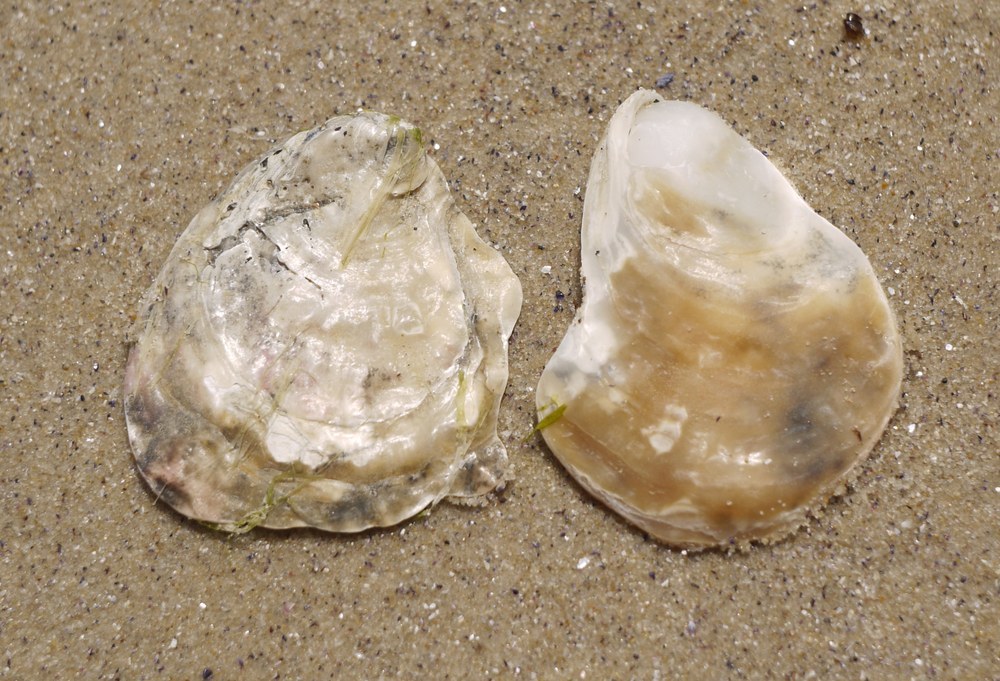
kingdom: Animalia
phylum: Mollusca
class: Bivalvia
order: Ostreida
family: Ostreidae
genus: Ostrea
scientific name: Ostrea edulis
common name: Flat oyster
